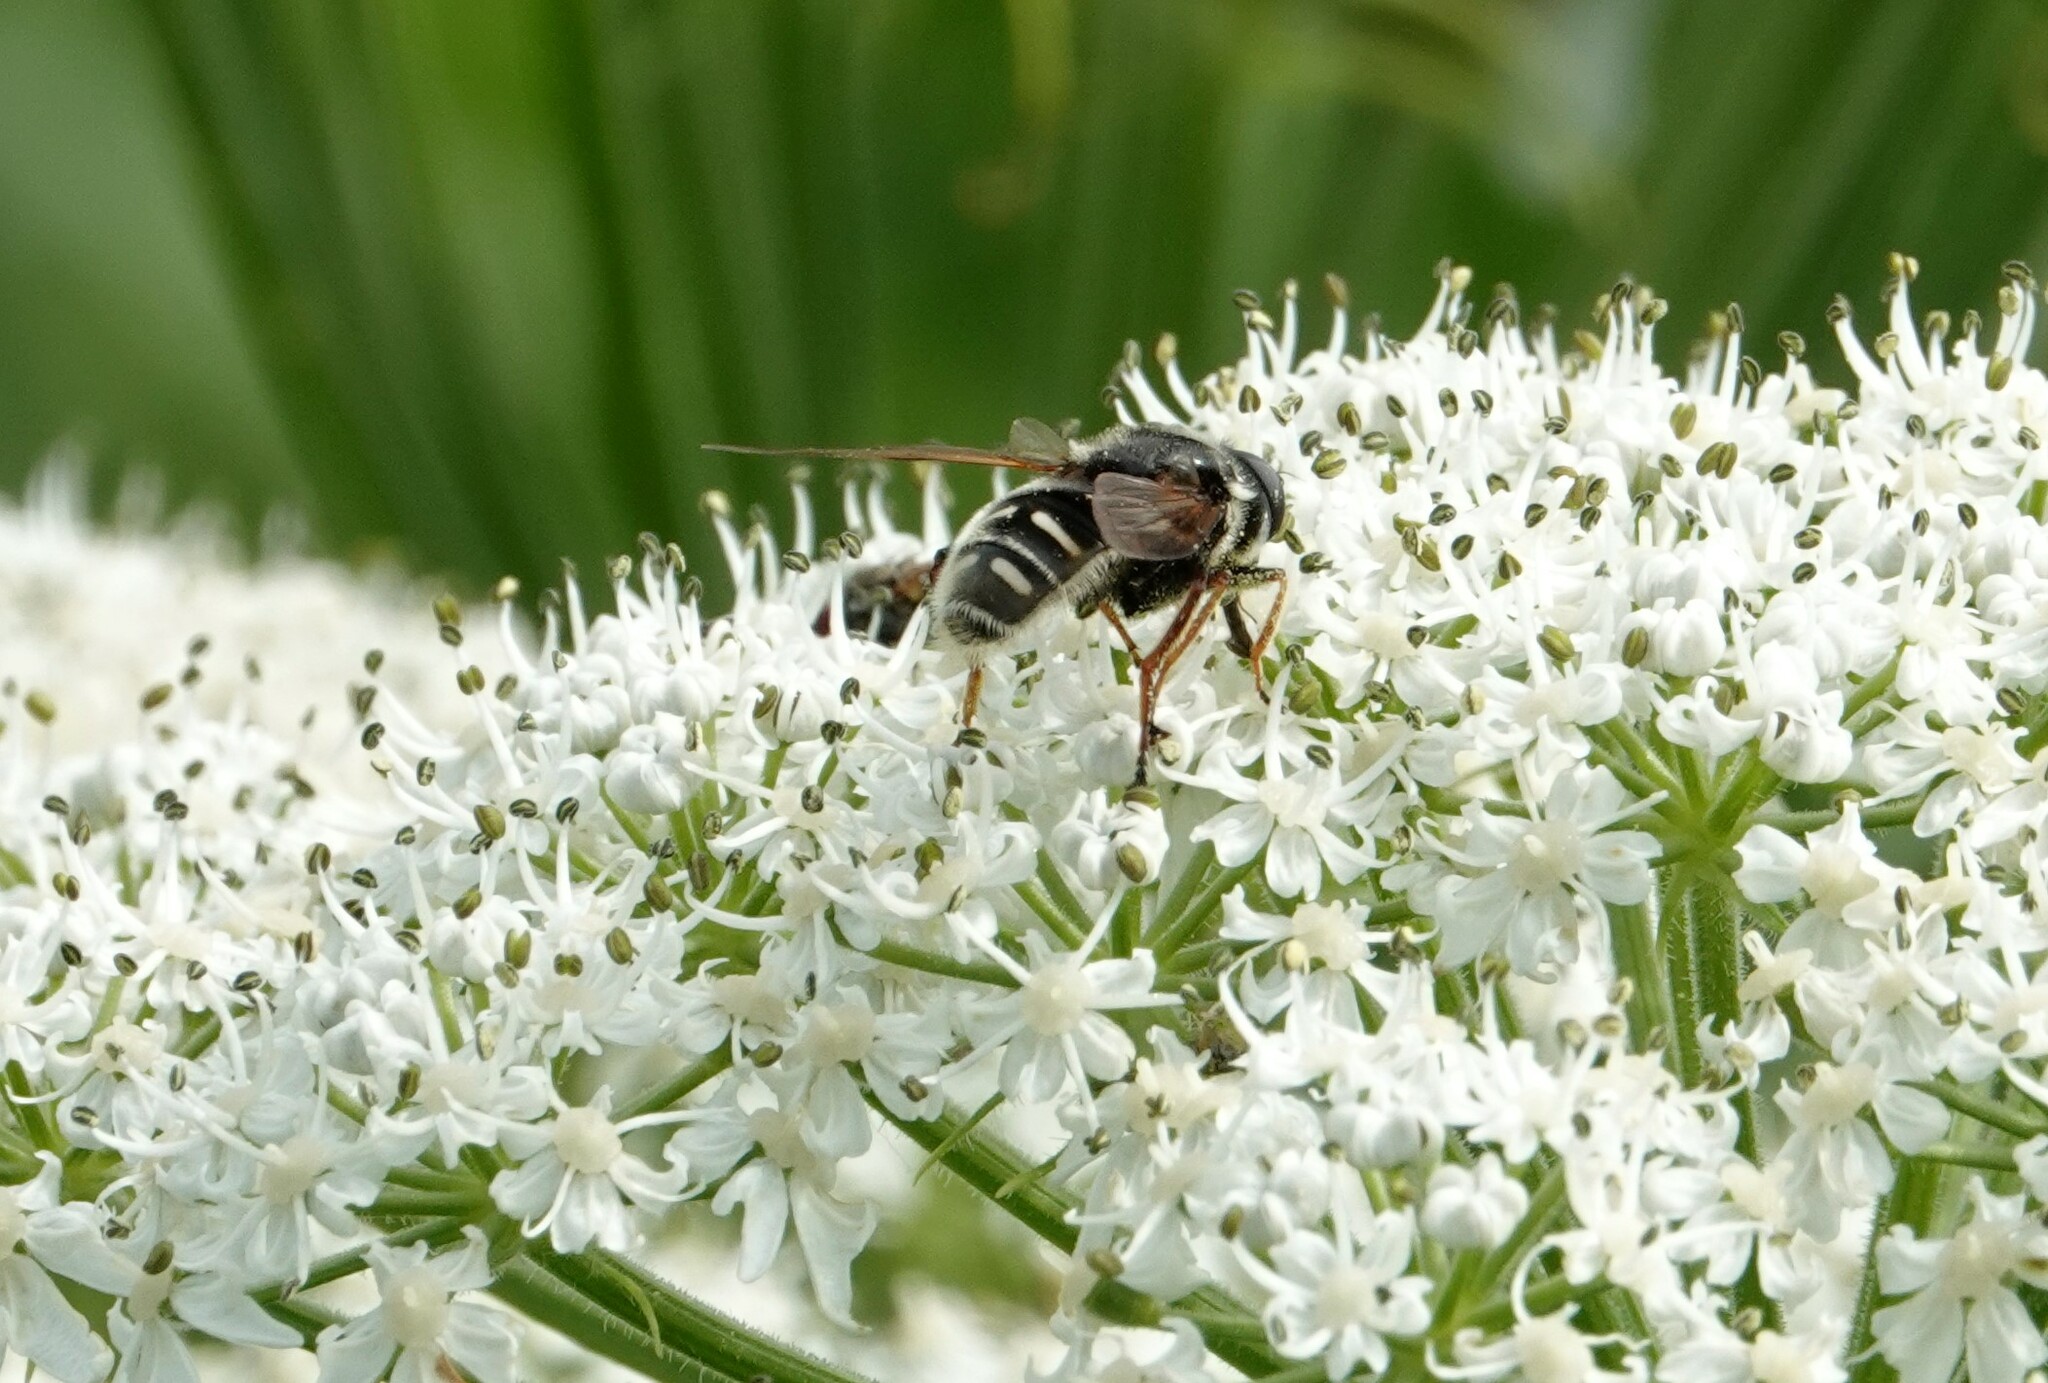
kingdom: Animalia
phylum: Arthropoda
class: Insecta
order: Diptera
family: Syrphidae
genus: Sericomyia
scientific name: Sericomyia militaris
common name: Narrow-banded pond fly
